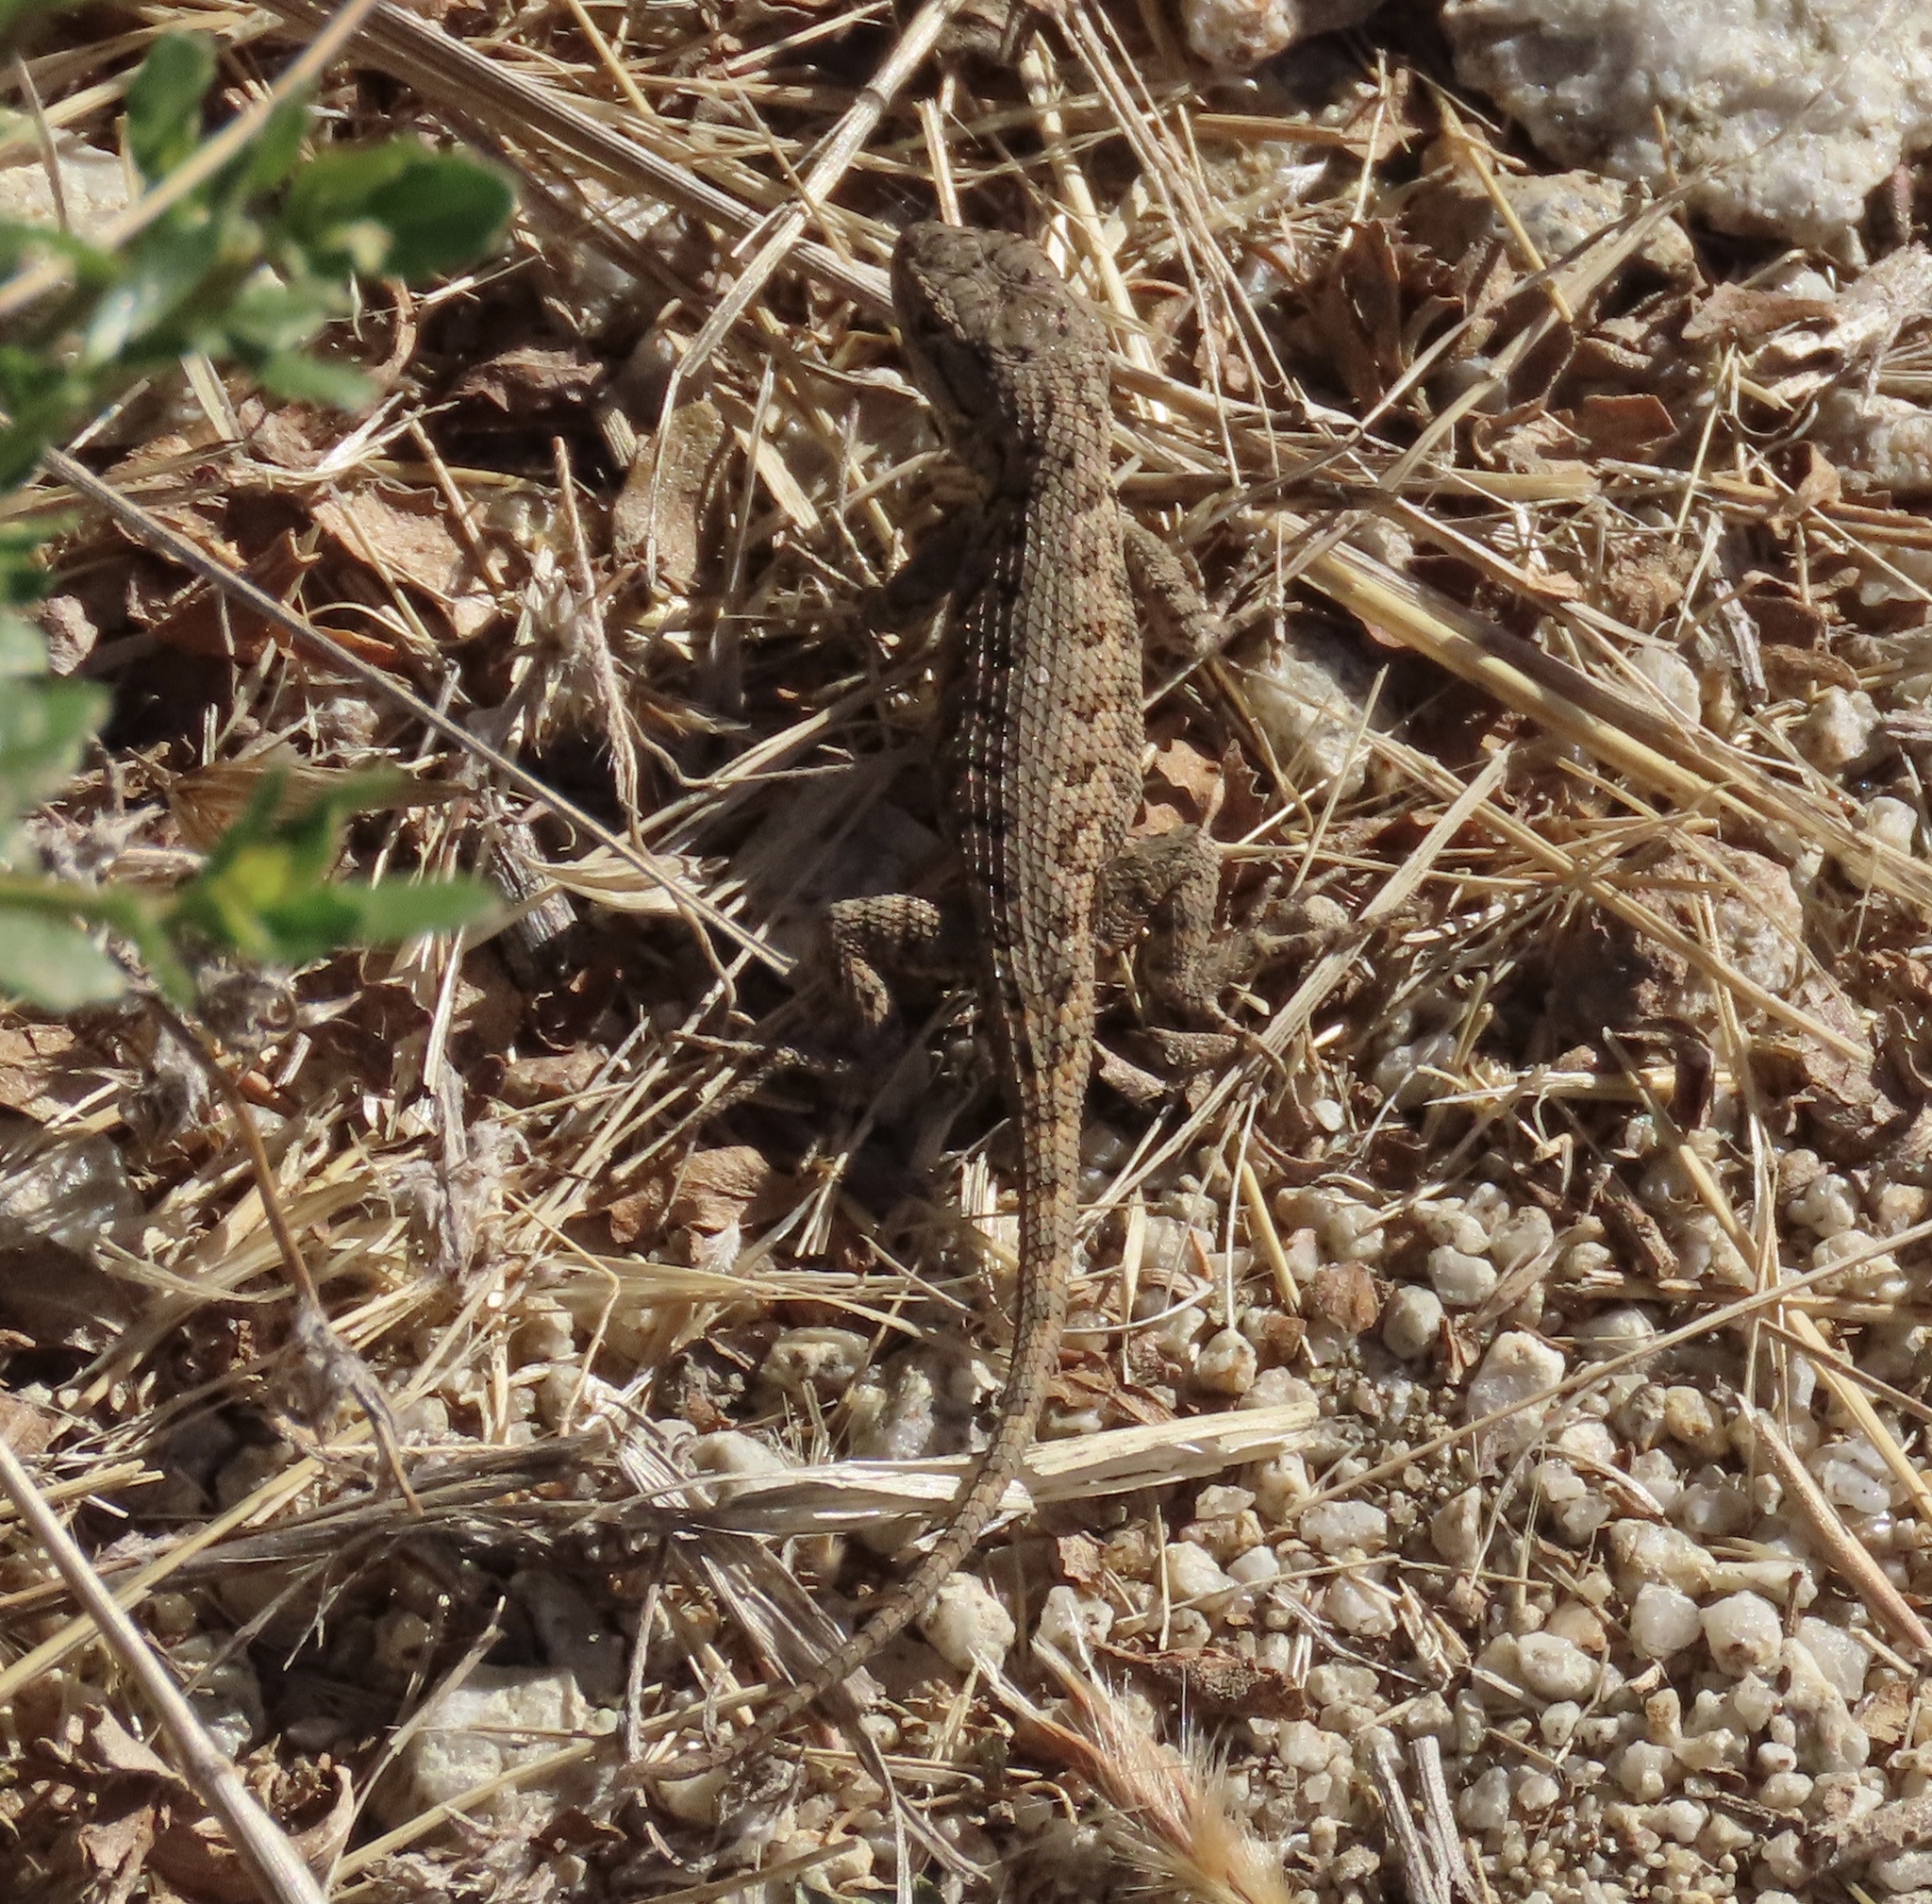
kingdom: Animalia
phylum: Chordata
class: Squamata
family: Phrynosomatidae
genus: Sceloporus
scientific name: Sceloporus occidentalis
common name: Western fence lizard
